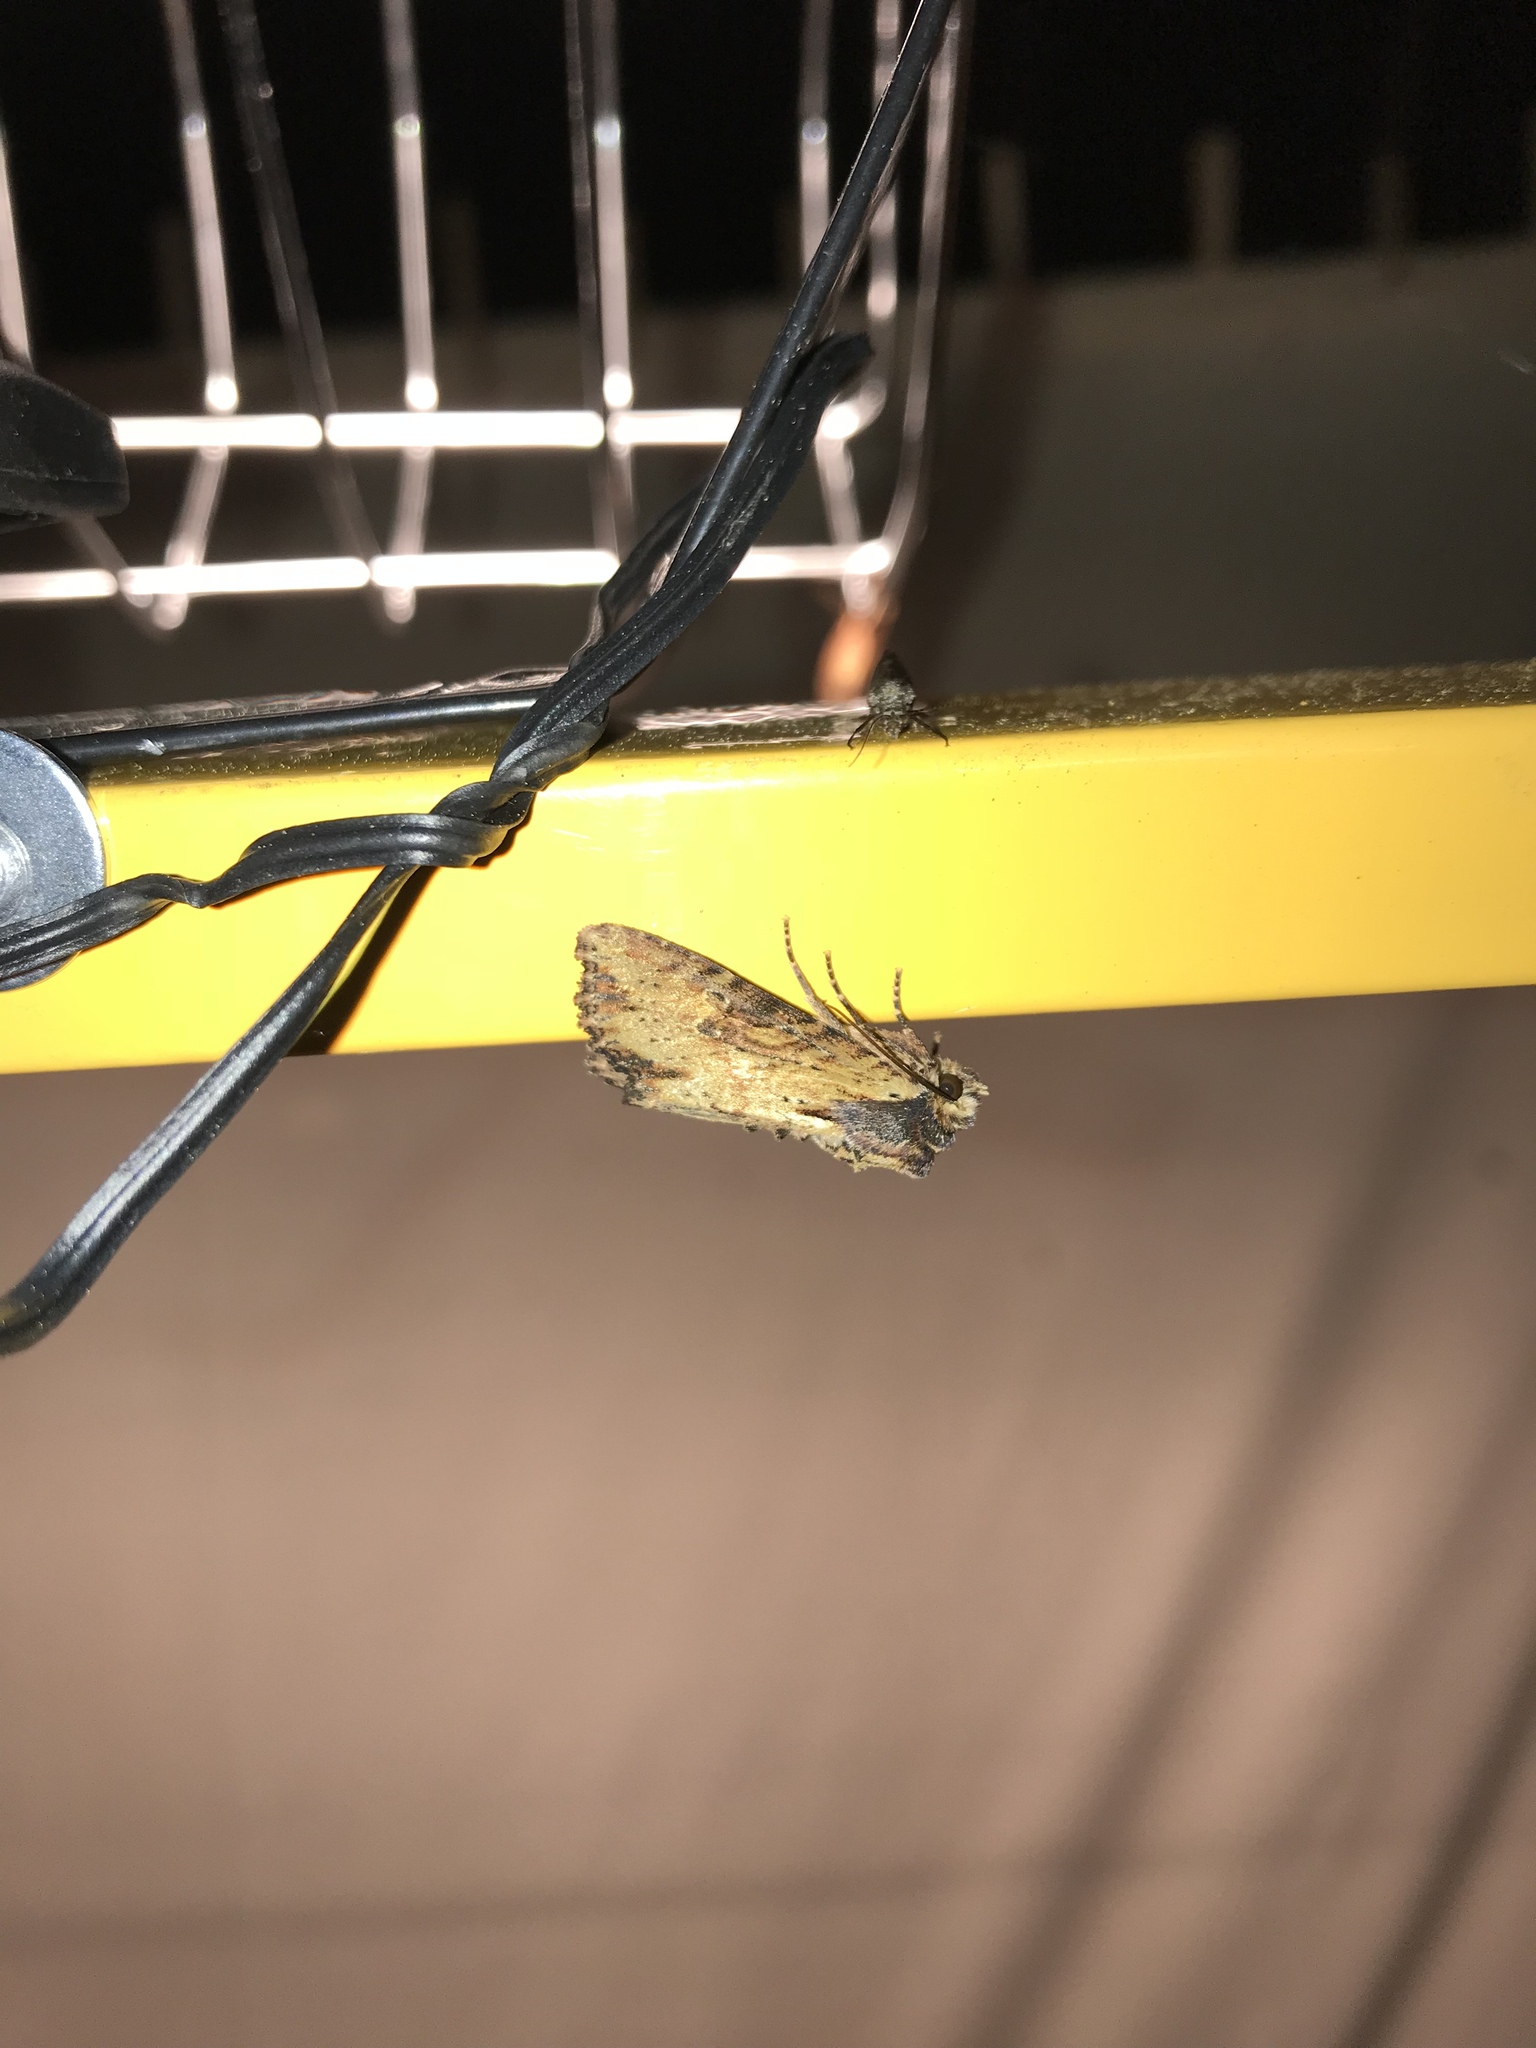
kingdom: Animalia
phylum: Arthropoda
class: Insecta
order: Lepidoptera
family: Noctuidae
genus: Apamea
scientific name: Apamea vultuosa
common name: Airy apamea moth
